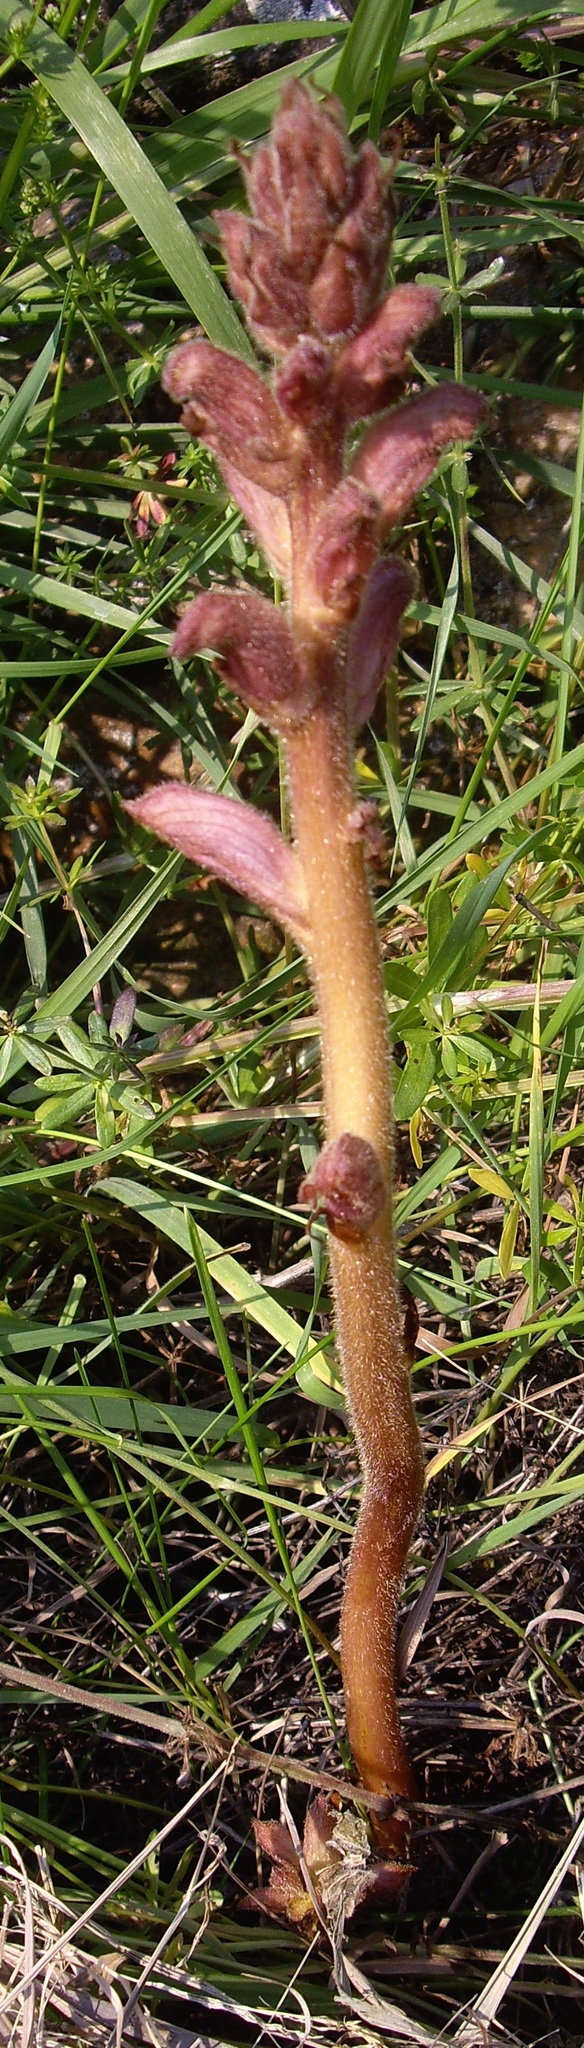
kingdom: Plantae
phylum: Tracheophyta
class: Magnoliopsida
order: Lamiales
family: Orobanchaceae
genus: Orobanche
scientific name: Orobanche caryophyllacea
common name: Bedstraw broomrape
